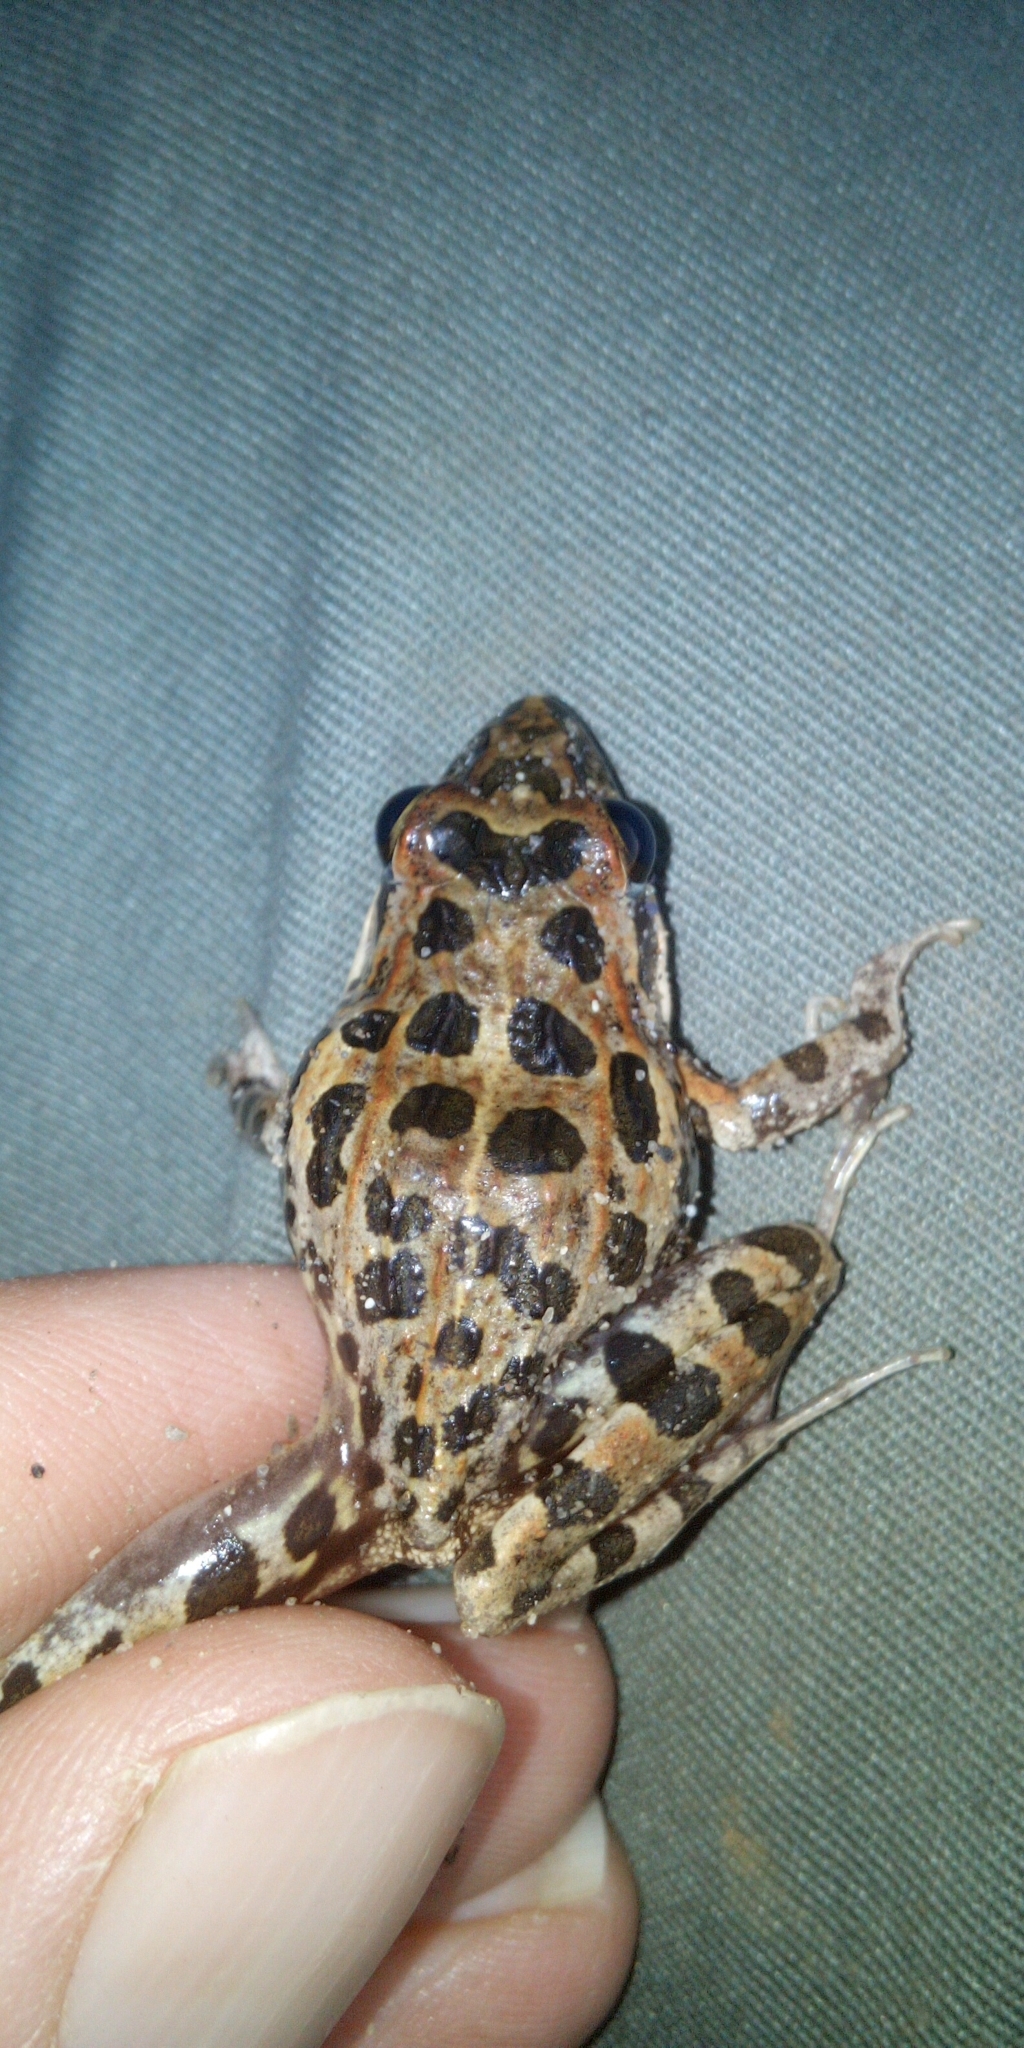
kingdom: Animalia
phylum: Chordata
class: Amphibia
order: Anura
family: Pyxicephalidae
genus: Strongylopus
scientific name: Strongylopus grayii
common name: Gray's stream frog
